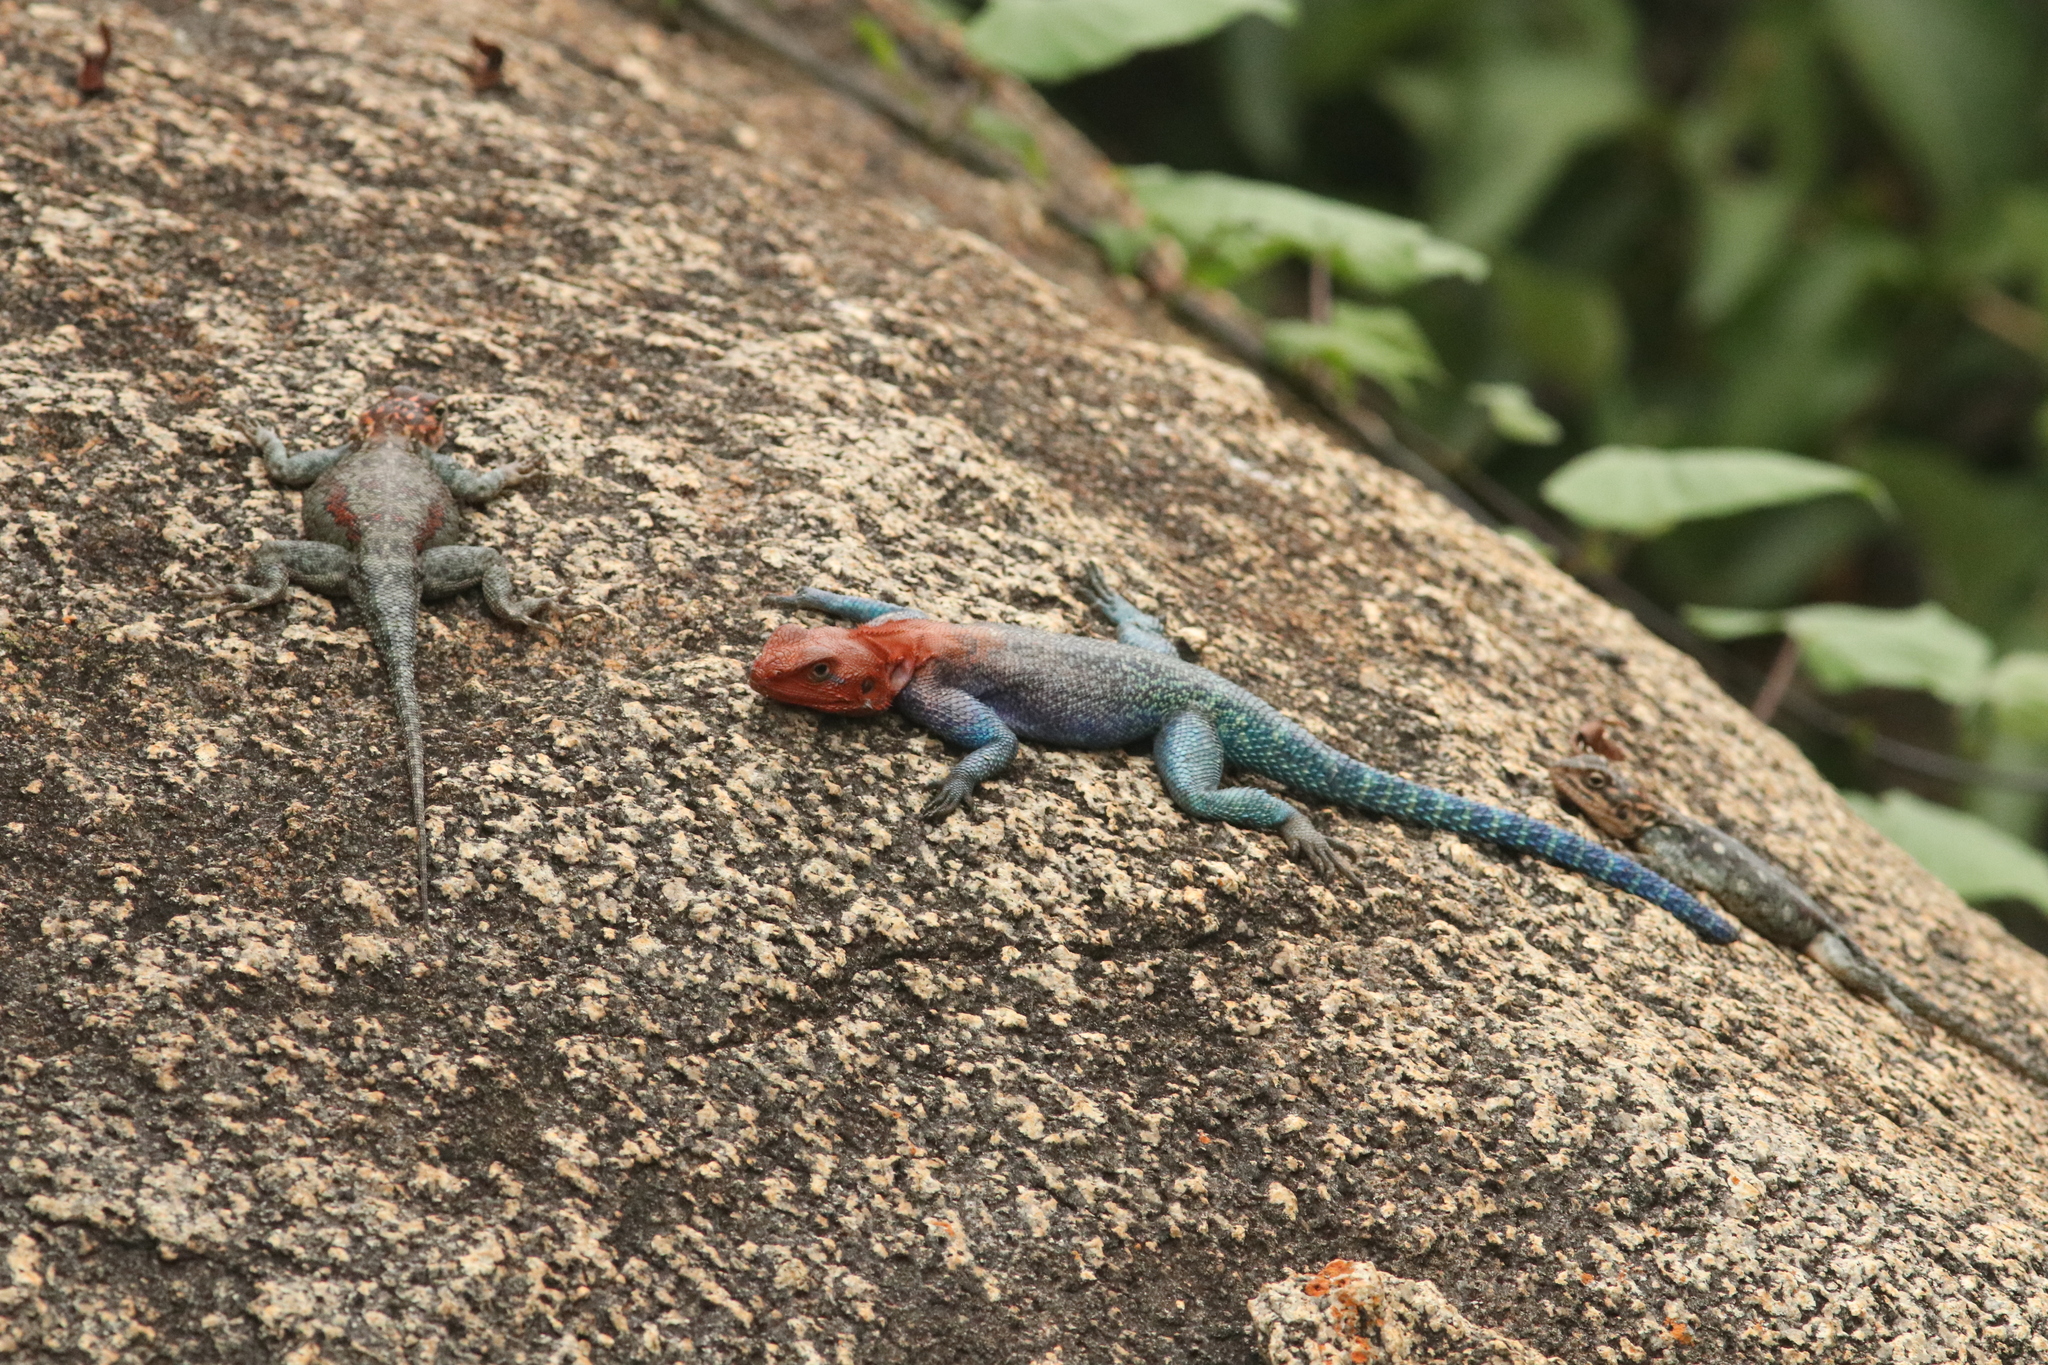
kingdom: Animalia
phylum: Chordata
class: Squamata
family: Agamidae
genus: Agama
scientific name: Agama dodomae
